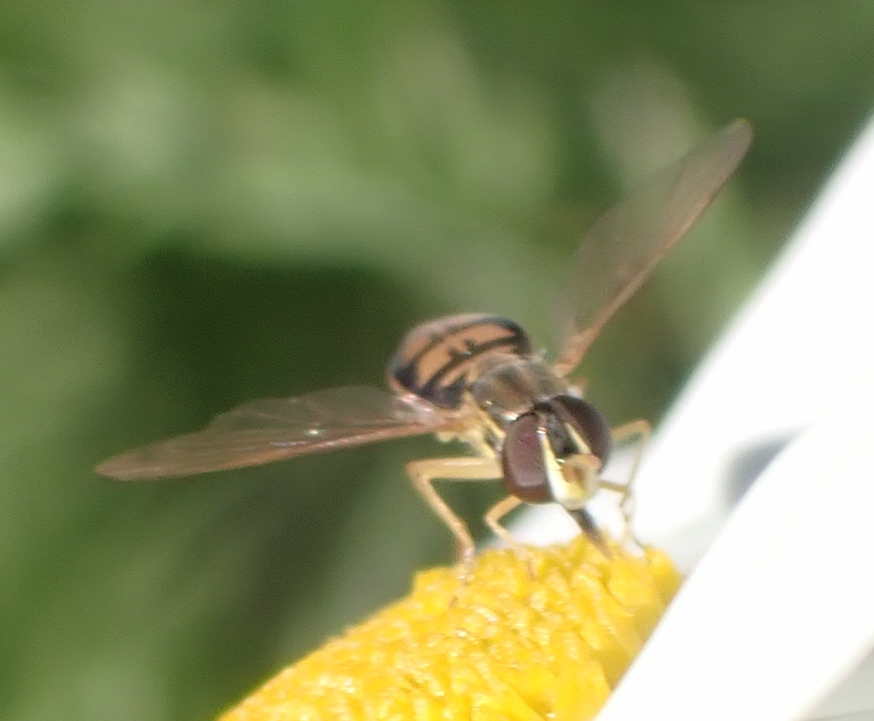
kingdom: Animalia
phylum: Arthropoda
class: Insecta
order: Diptera
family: Syrphidae
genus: Toxomerus
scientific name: Toxomerus marginatus
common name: Syrphid fly
